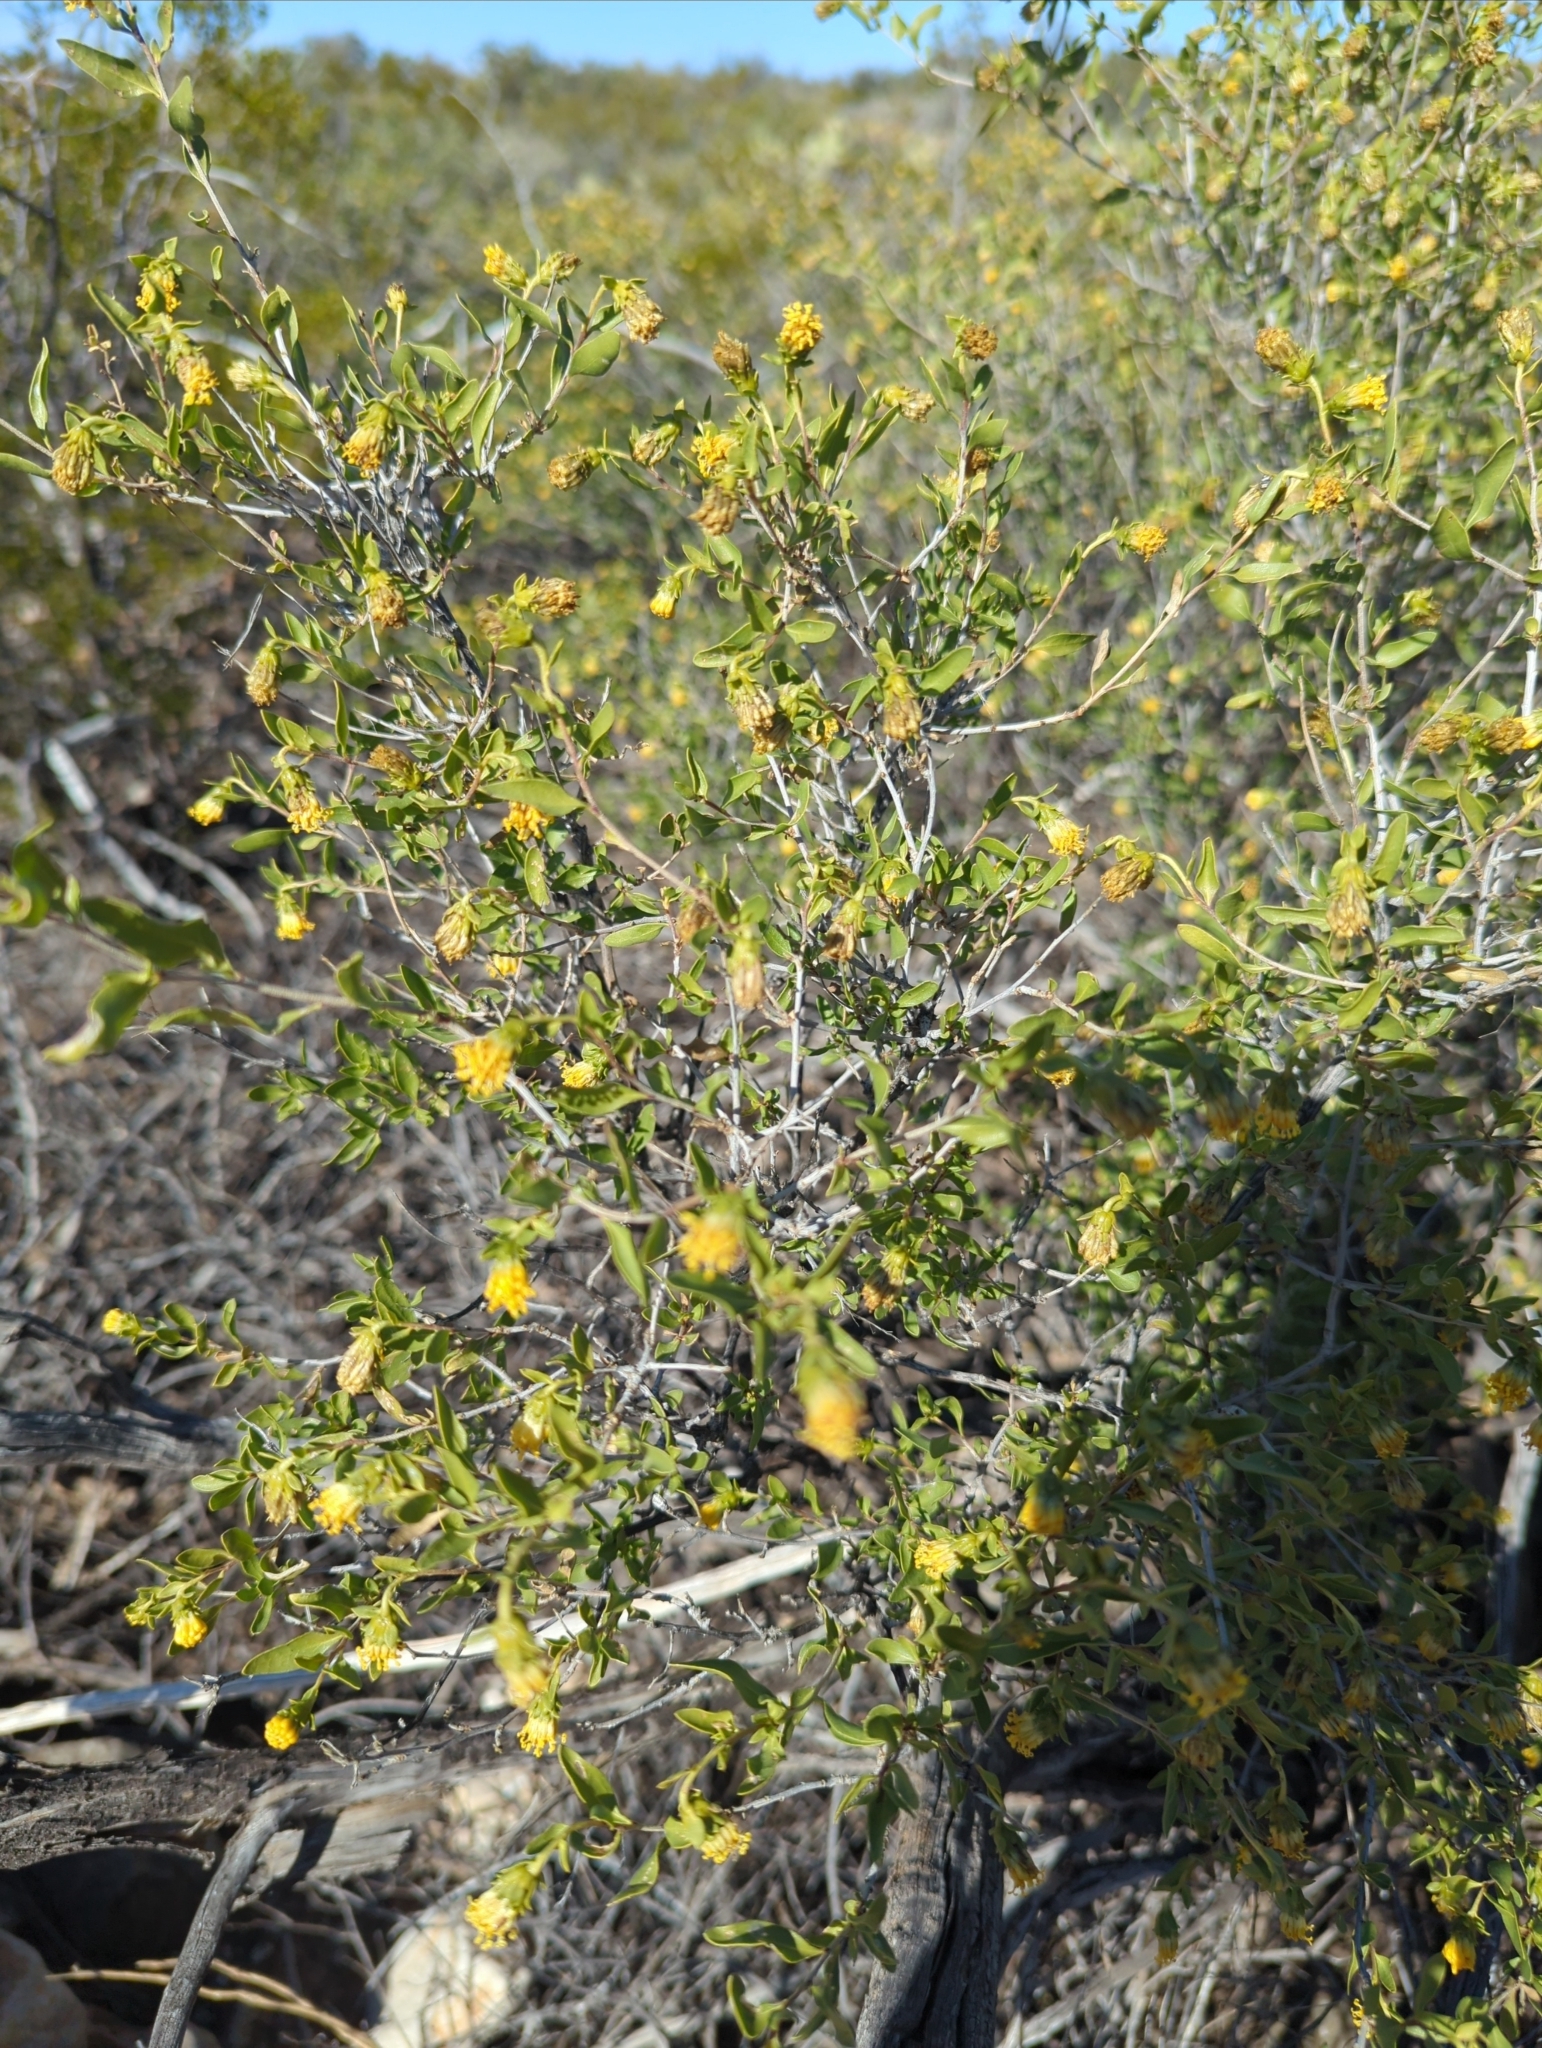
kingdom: Plantae
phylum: Tracheophyta
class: Magnoliopsida
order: Asterales
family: Asteraceae
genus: Flourensia
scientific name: Flourensia cernua
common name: Varnishbush
